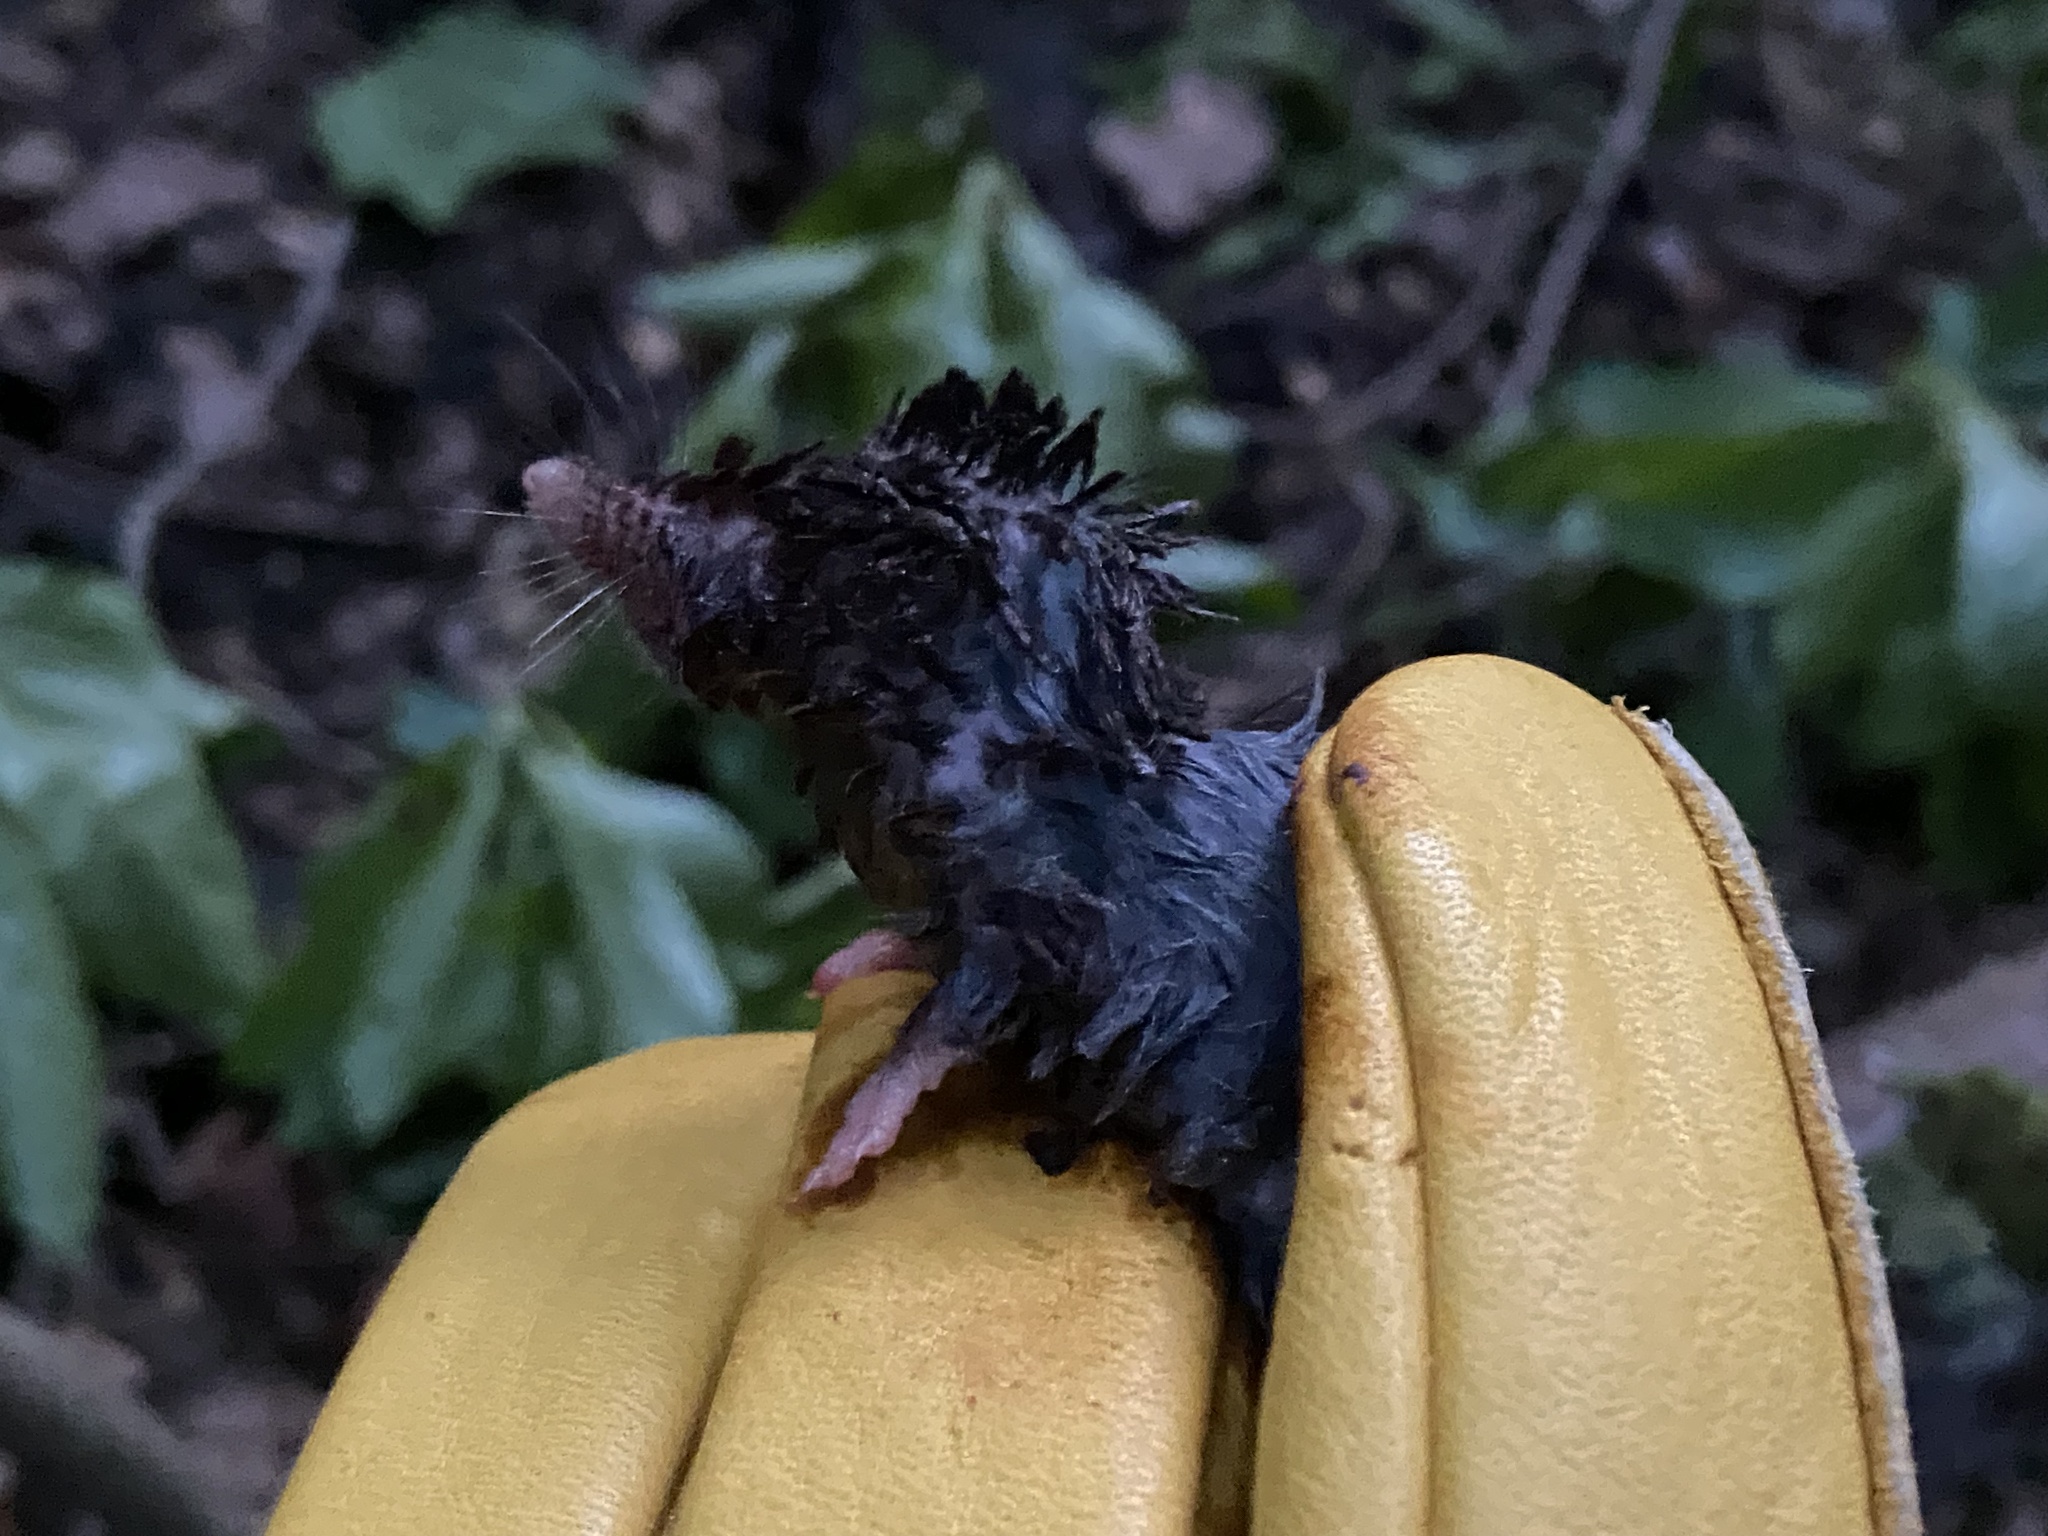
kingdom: Animalia
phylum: Chordata
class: Mammalia
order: Soricomorpha
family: Soricidae
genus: Blarina
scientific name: Blarina brevicauda
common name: Northern short-tailed shrew
